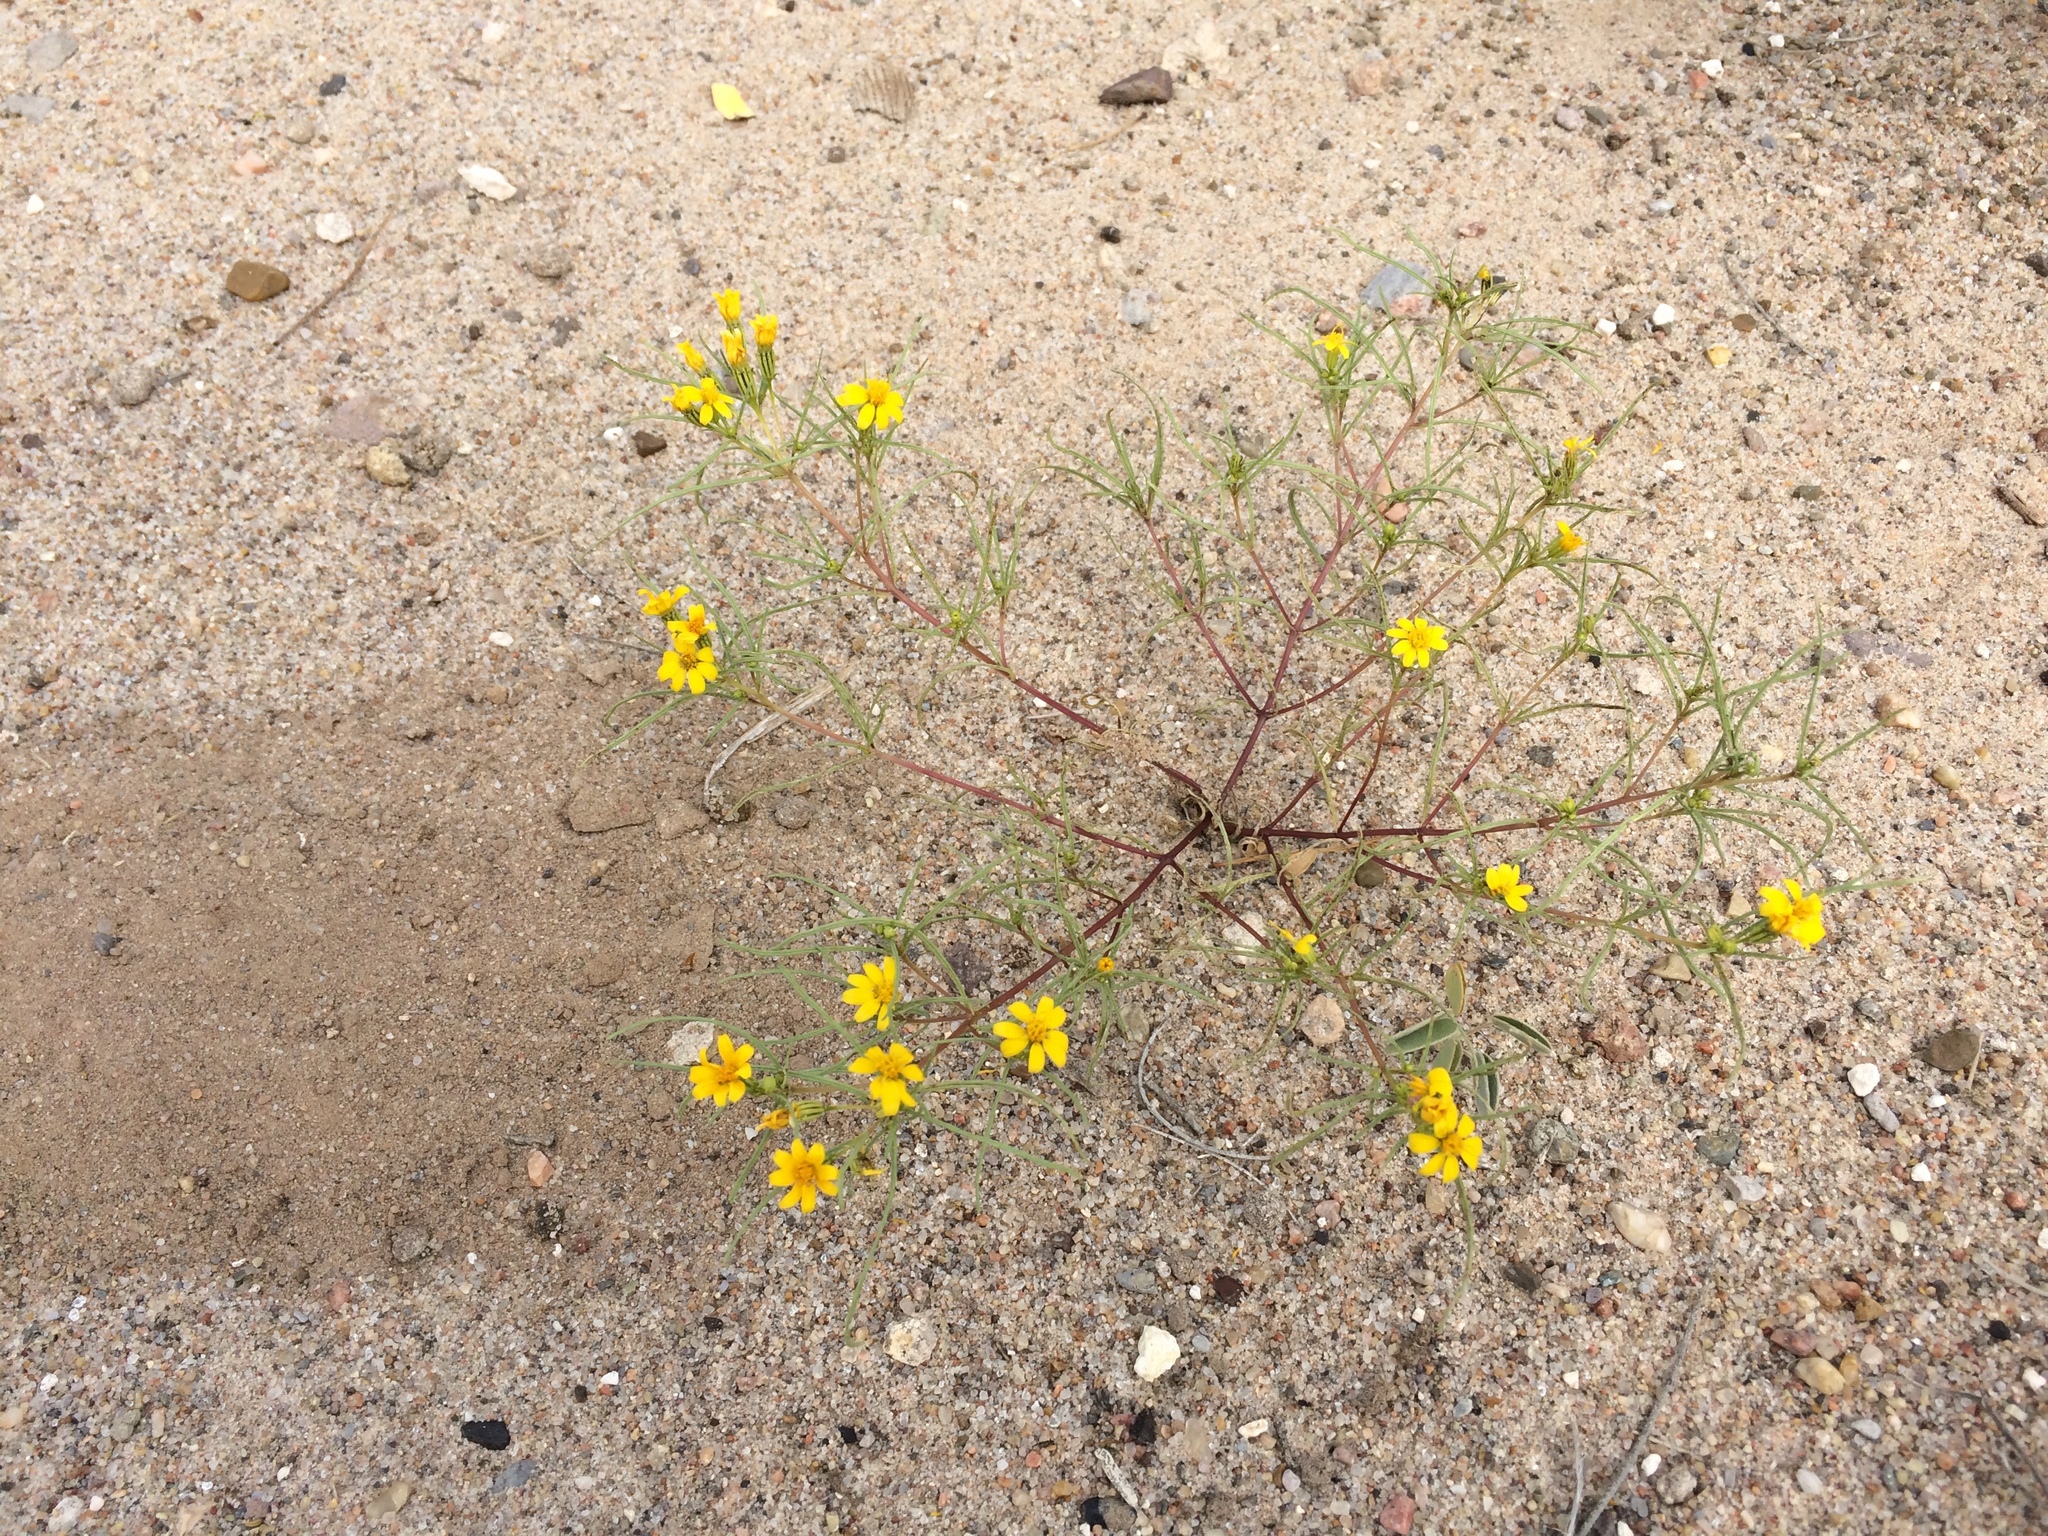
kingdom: Plantae
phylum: Tracheophyta
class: Magnoliopsida
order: Asterales
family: Asteraceae
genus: Pectis
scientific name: Pectis papposa
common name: Many-bristle chinchweed
